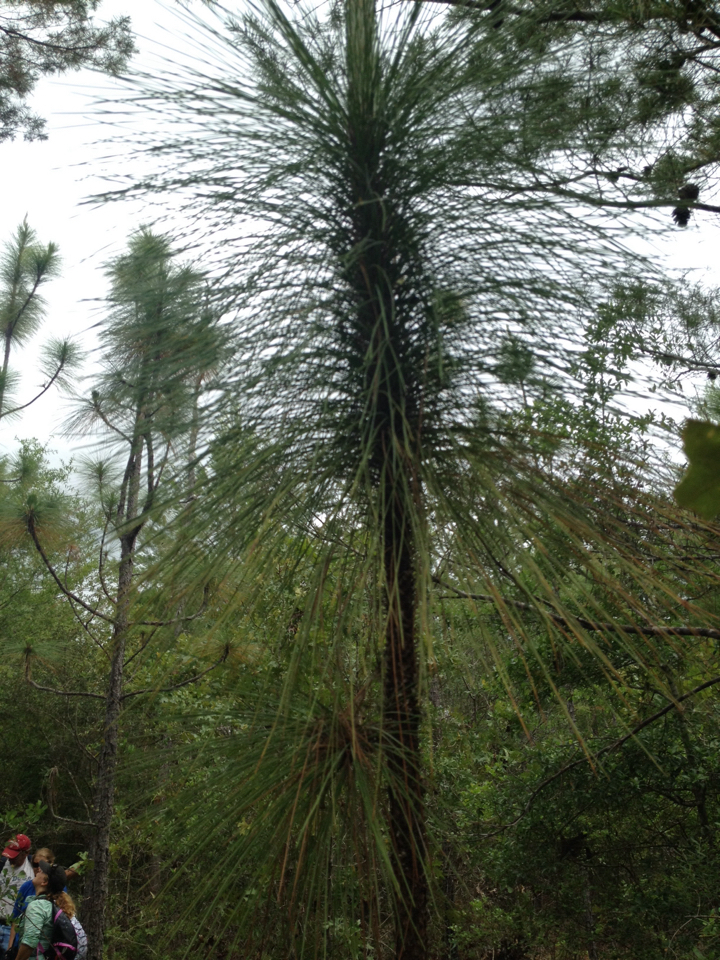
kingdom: Plantae
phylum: Tracheophyta
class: Pinopsida
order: Pinales
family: Pinaceae
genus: Pinus
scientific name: Pinus palustris
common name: Longleaf pine
